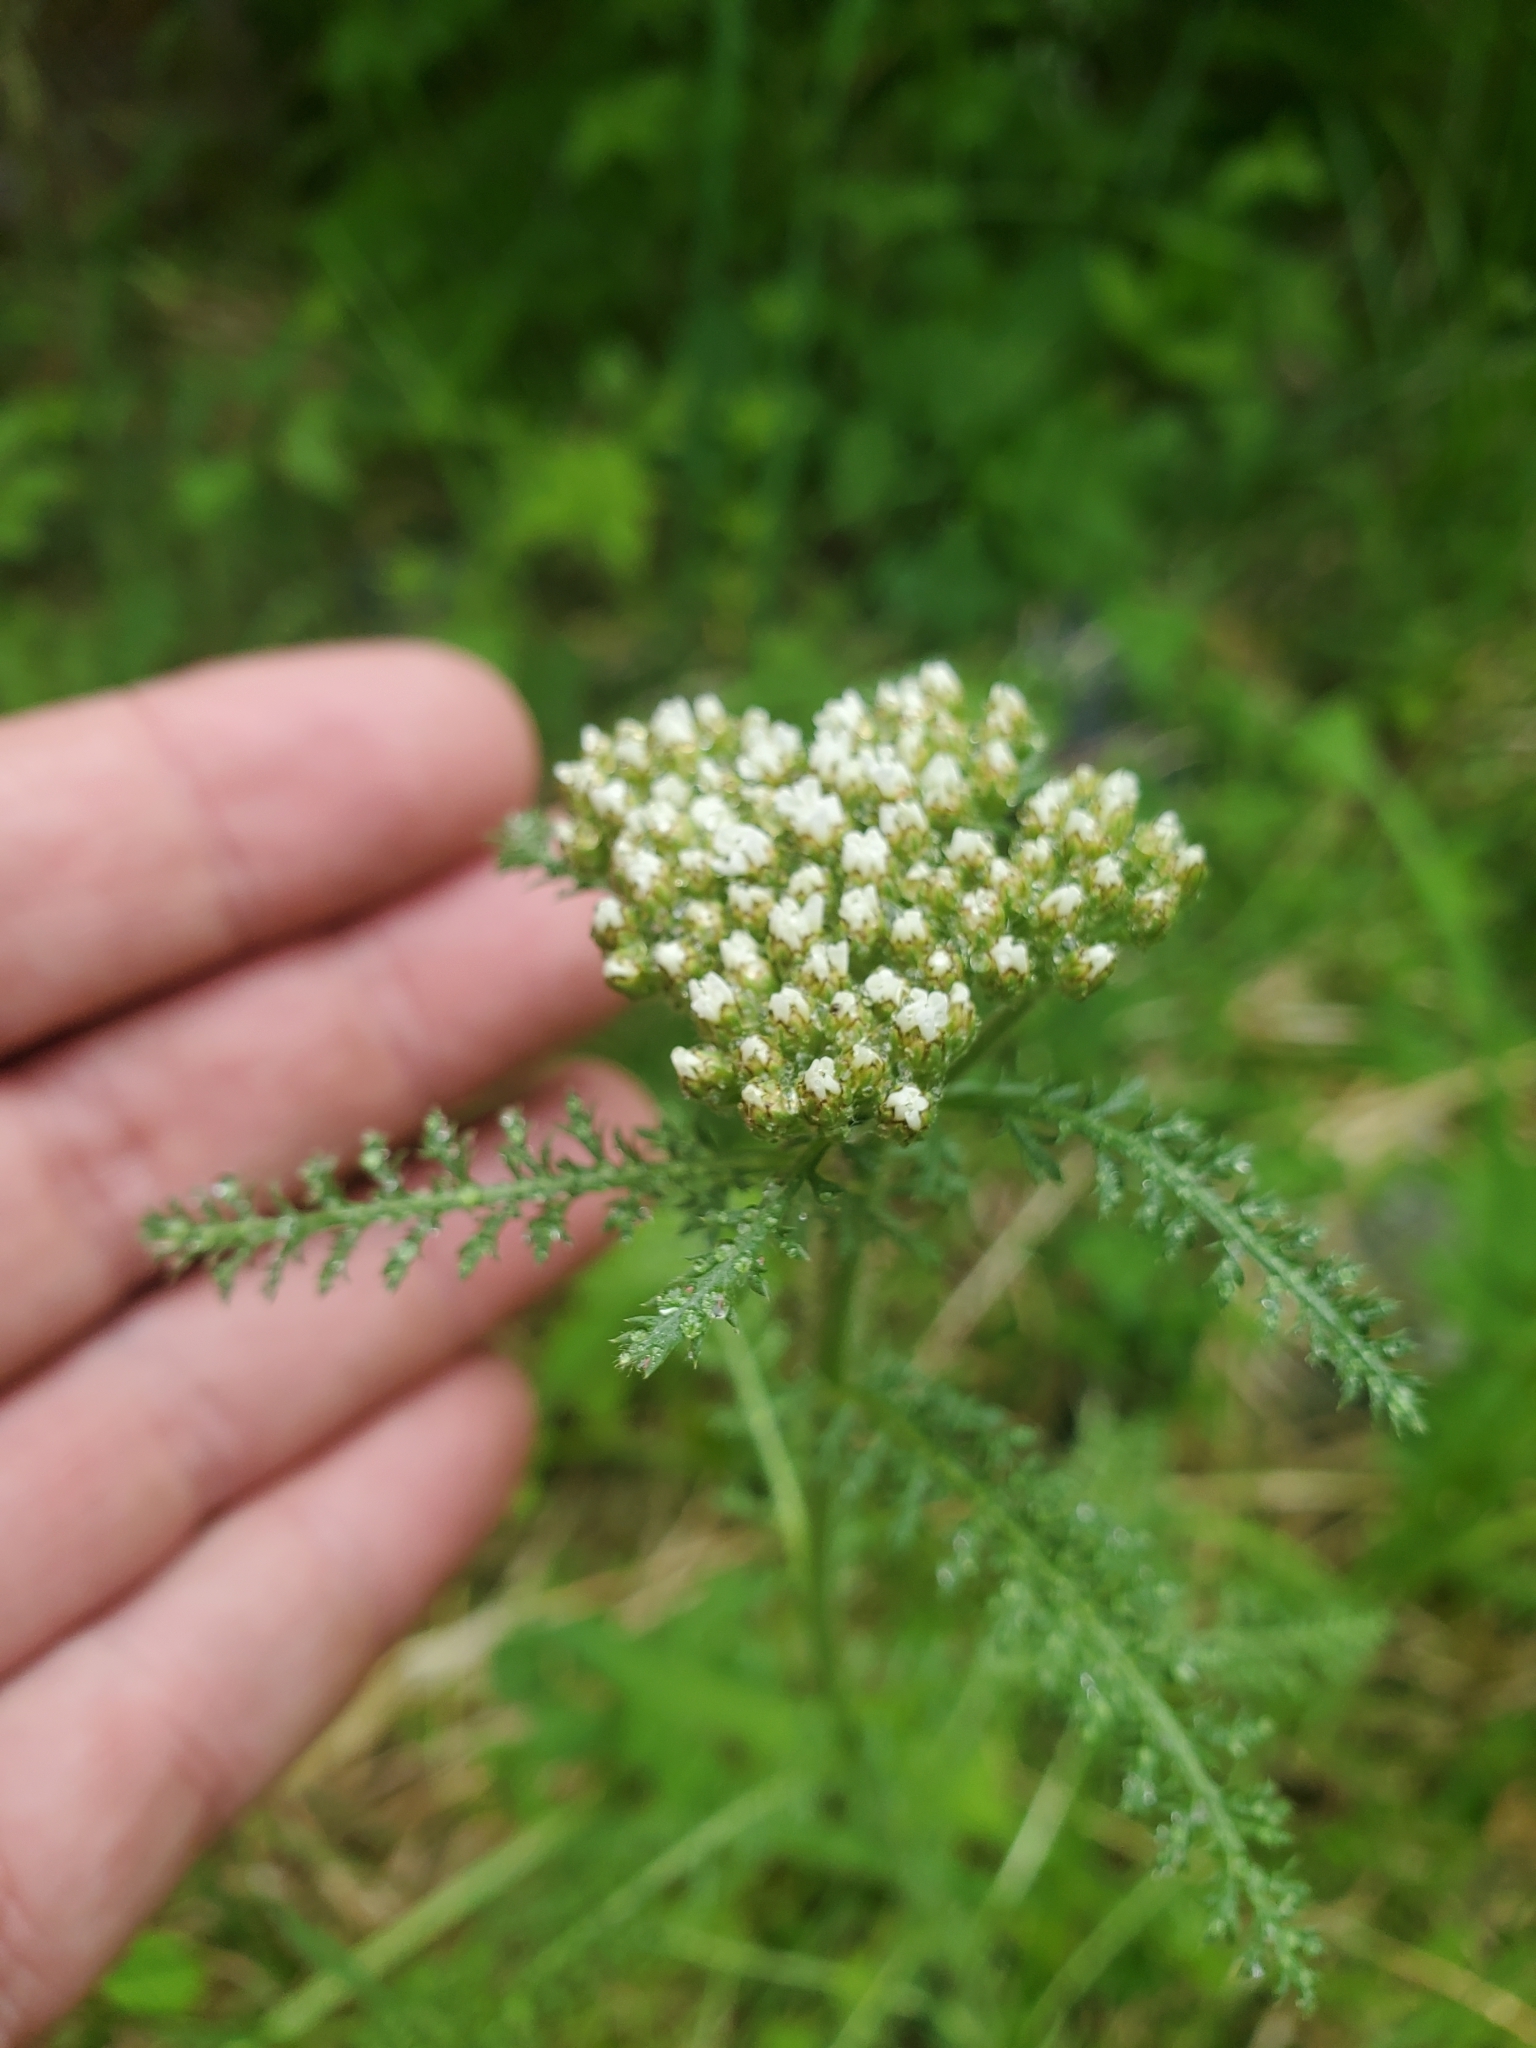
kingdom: Plantae
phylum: Tracheophyta
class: Magnoliopsida
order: Asterales
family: Asteraceae
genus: Achillea
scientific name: Achillea millefolium
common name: Yarrow
